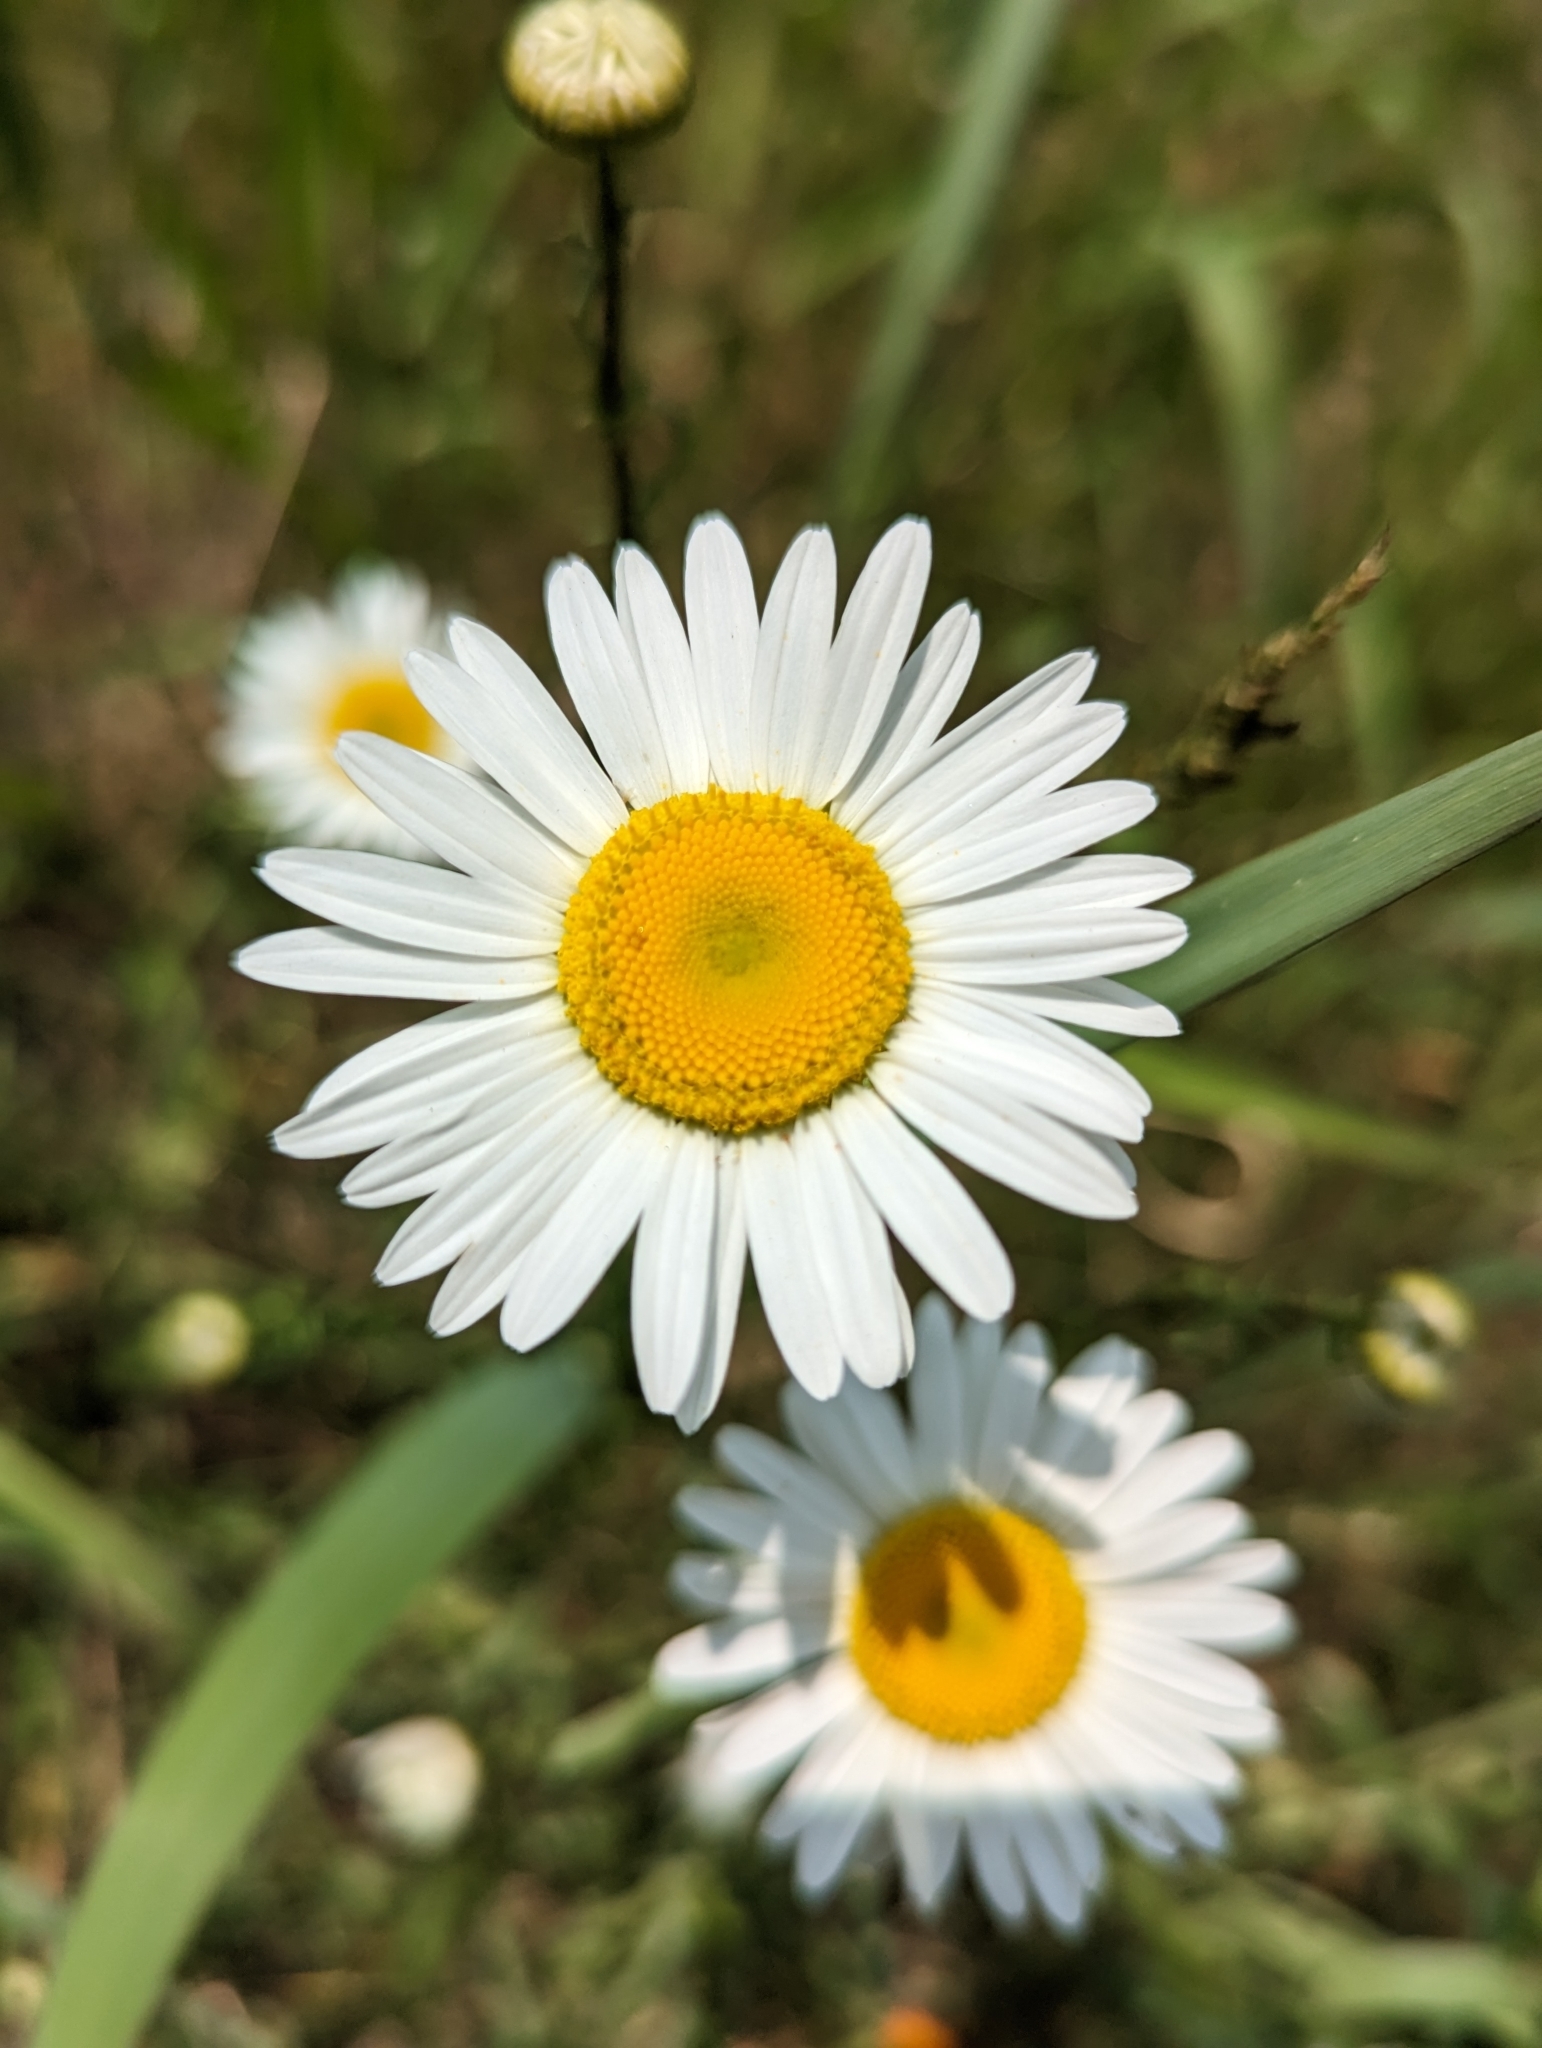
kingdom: Plantae
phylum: Tracheophyta
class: Magnoliopsida
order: Asterales
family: Asteraceae
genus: Leucanthemum
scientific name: Leucanthemum vulgare
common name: Oxeye daisy
